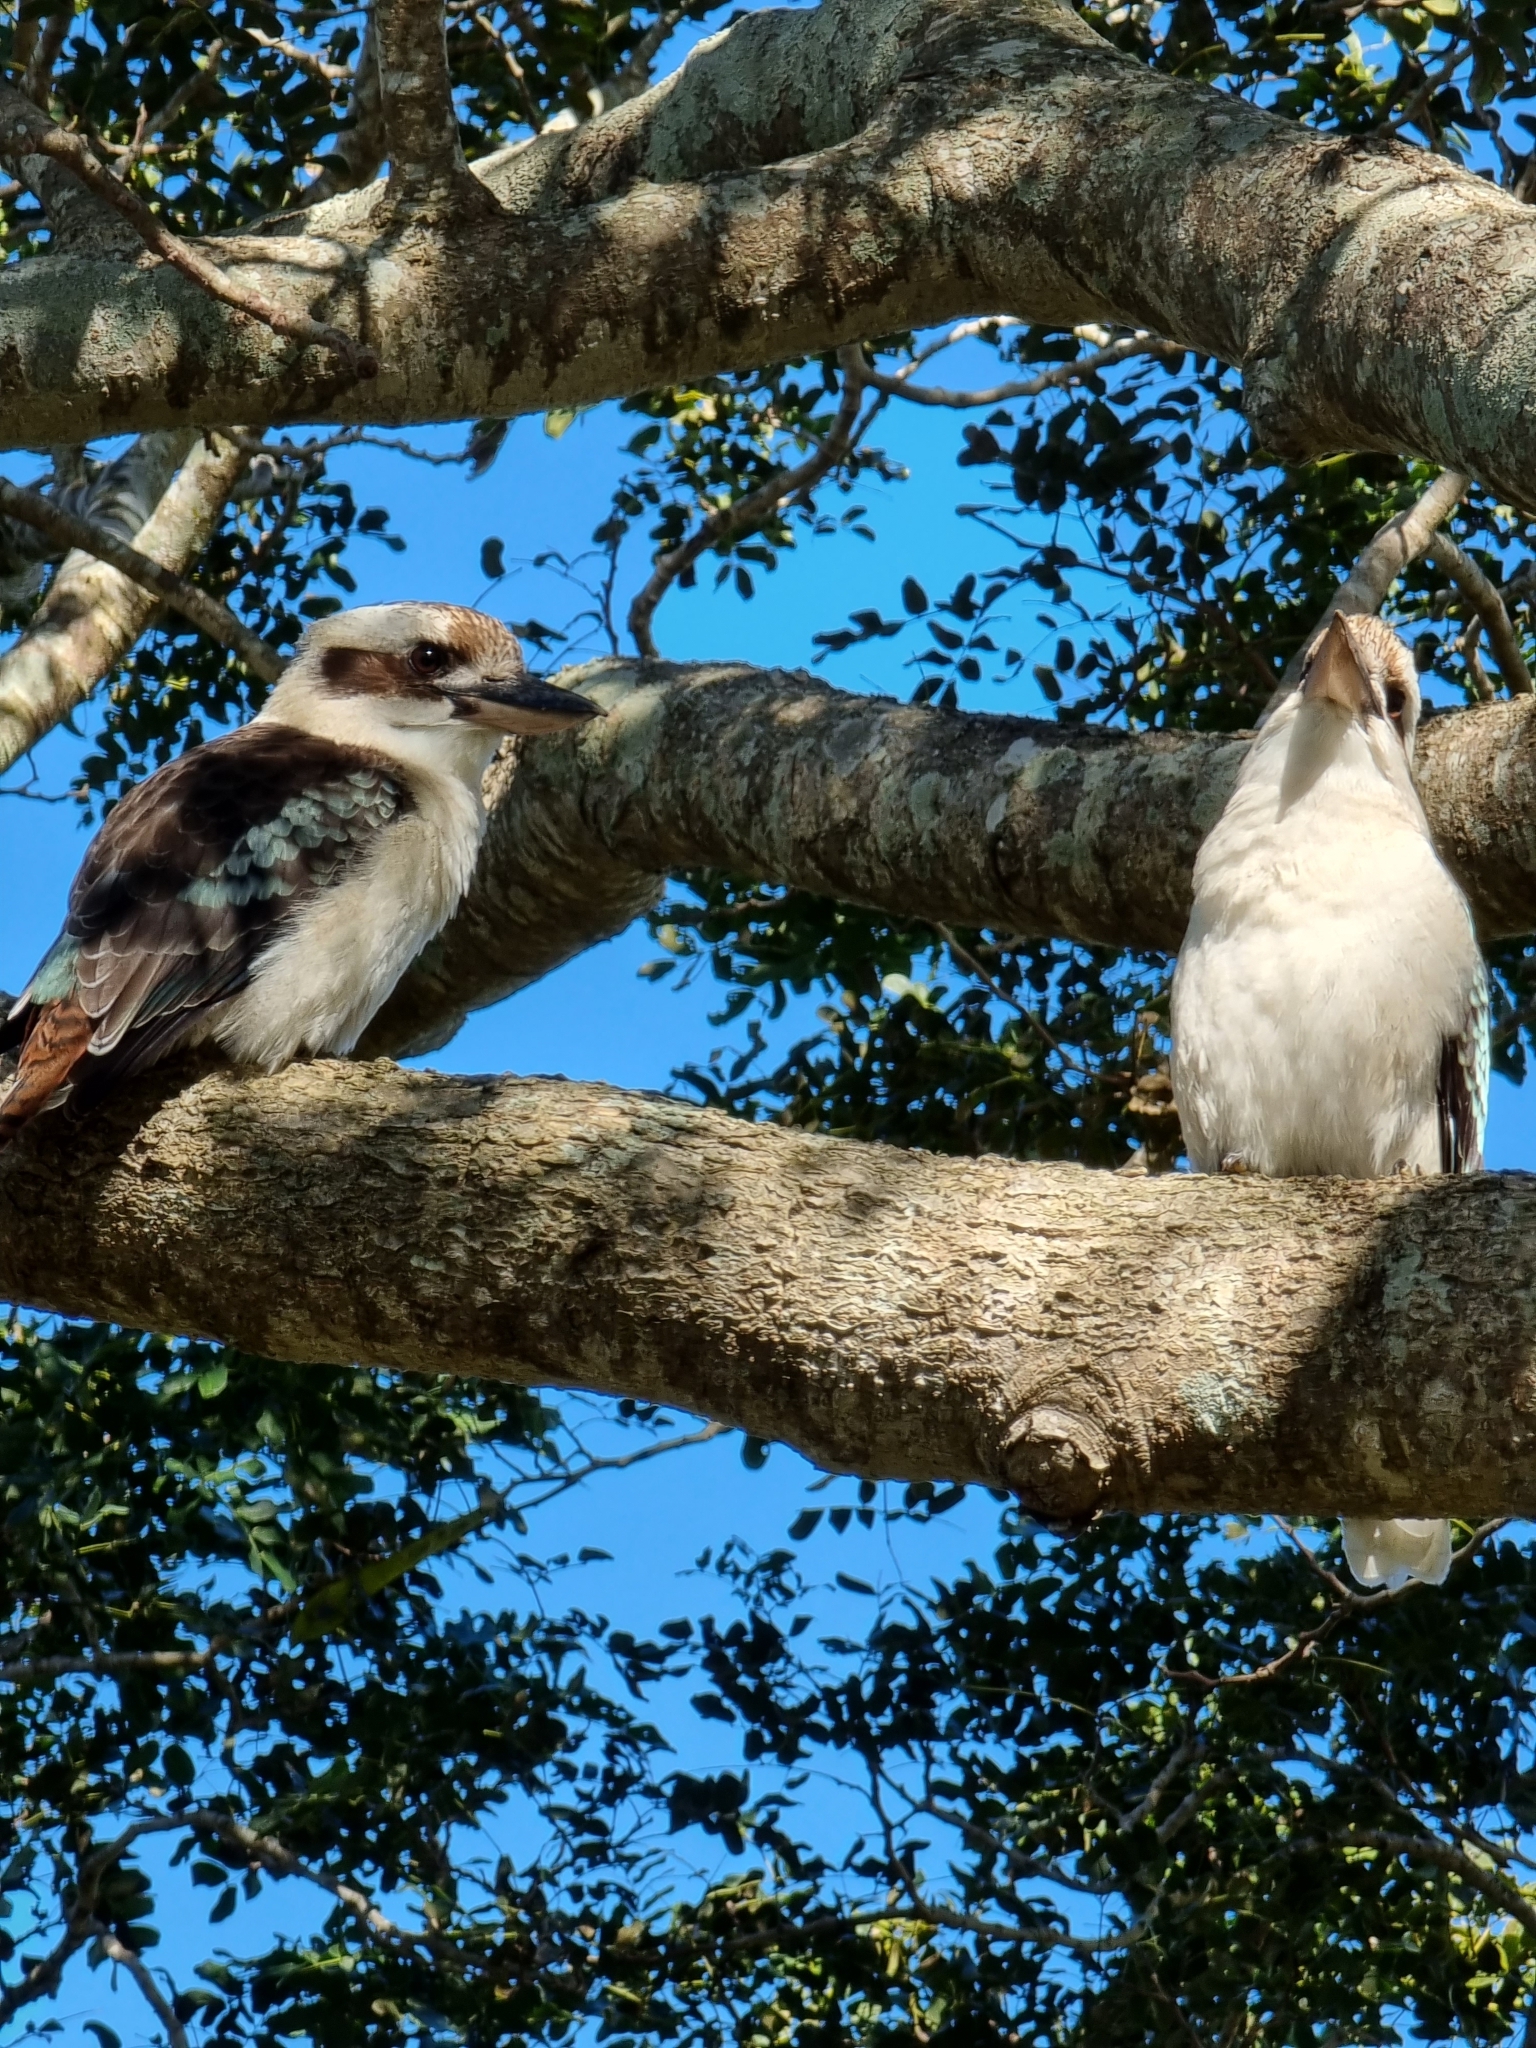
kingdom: Animalia
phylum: Chordata
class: Aves
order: Coraciiformes
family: Alcedinidae
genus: Dacelo
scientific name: Dacelo novaeguineae
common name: Laughing kookaburra
